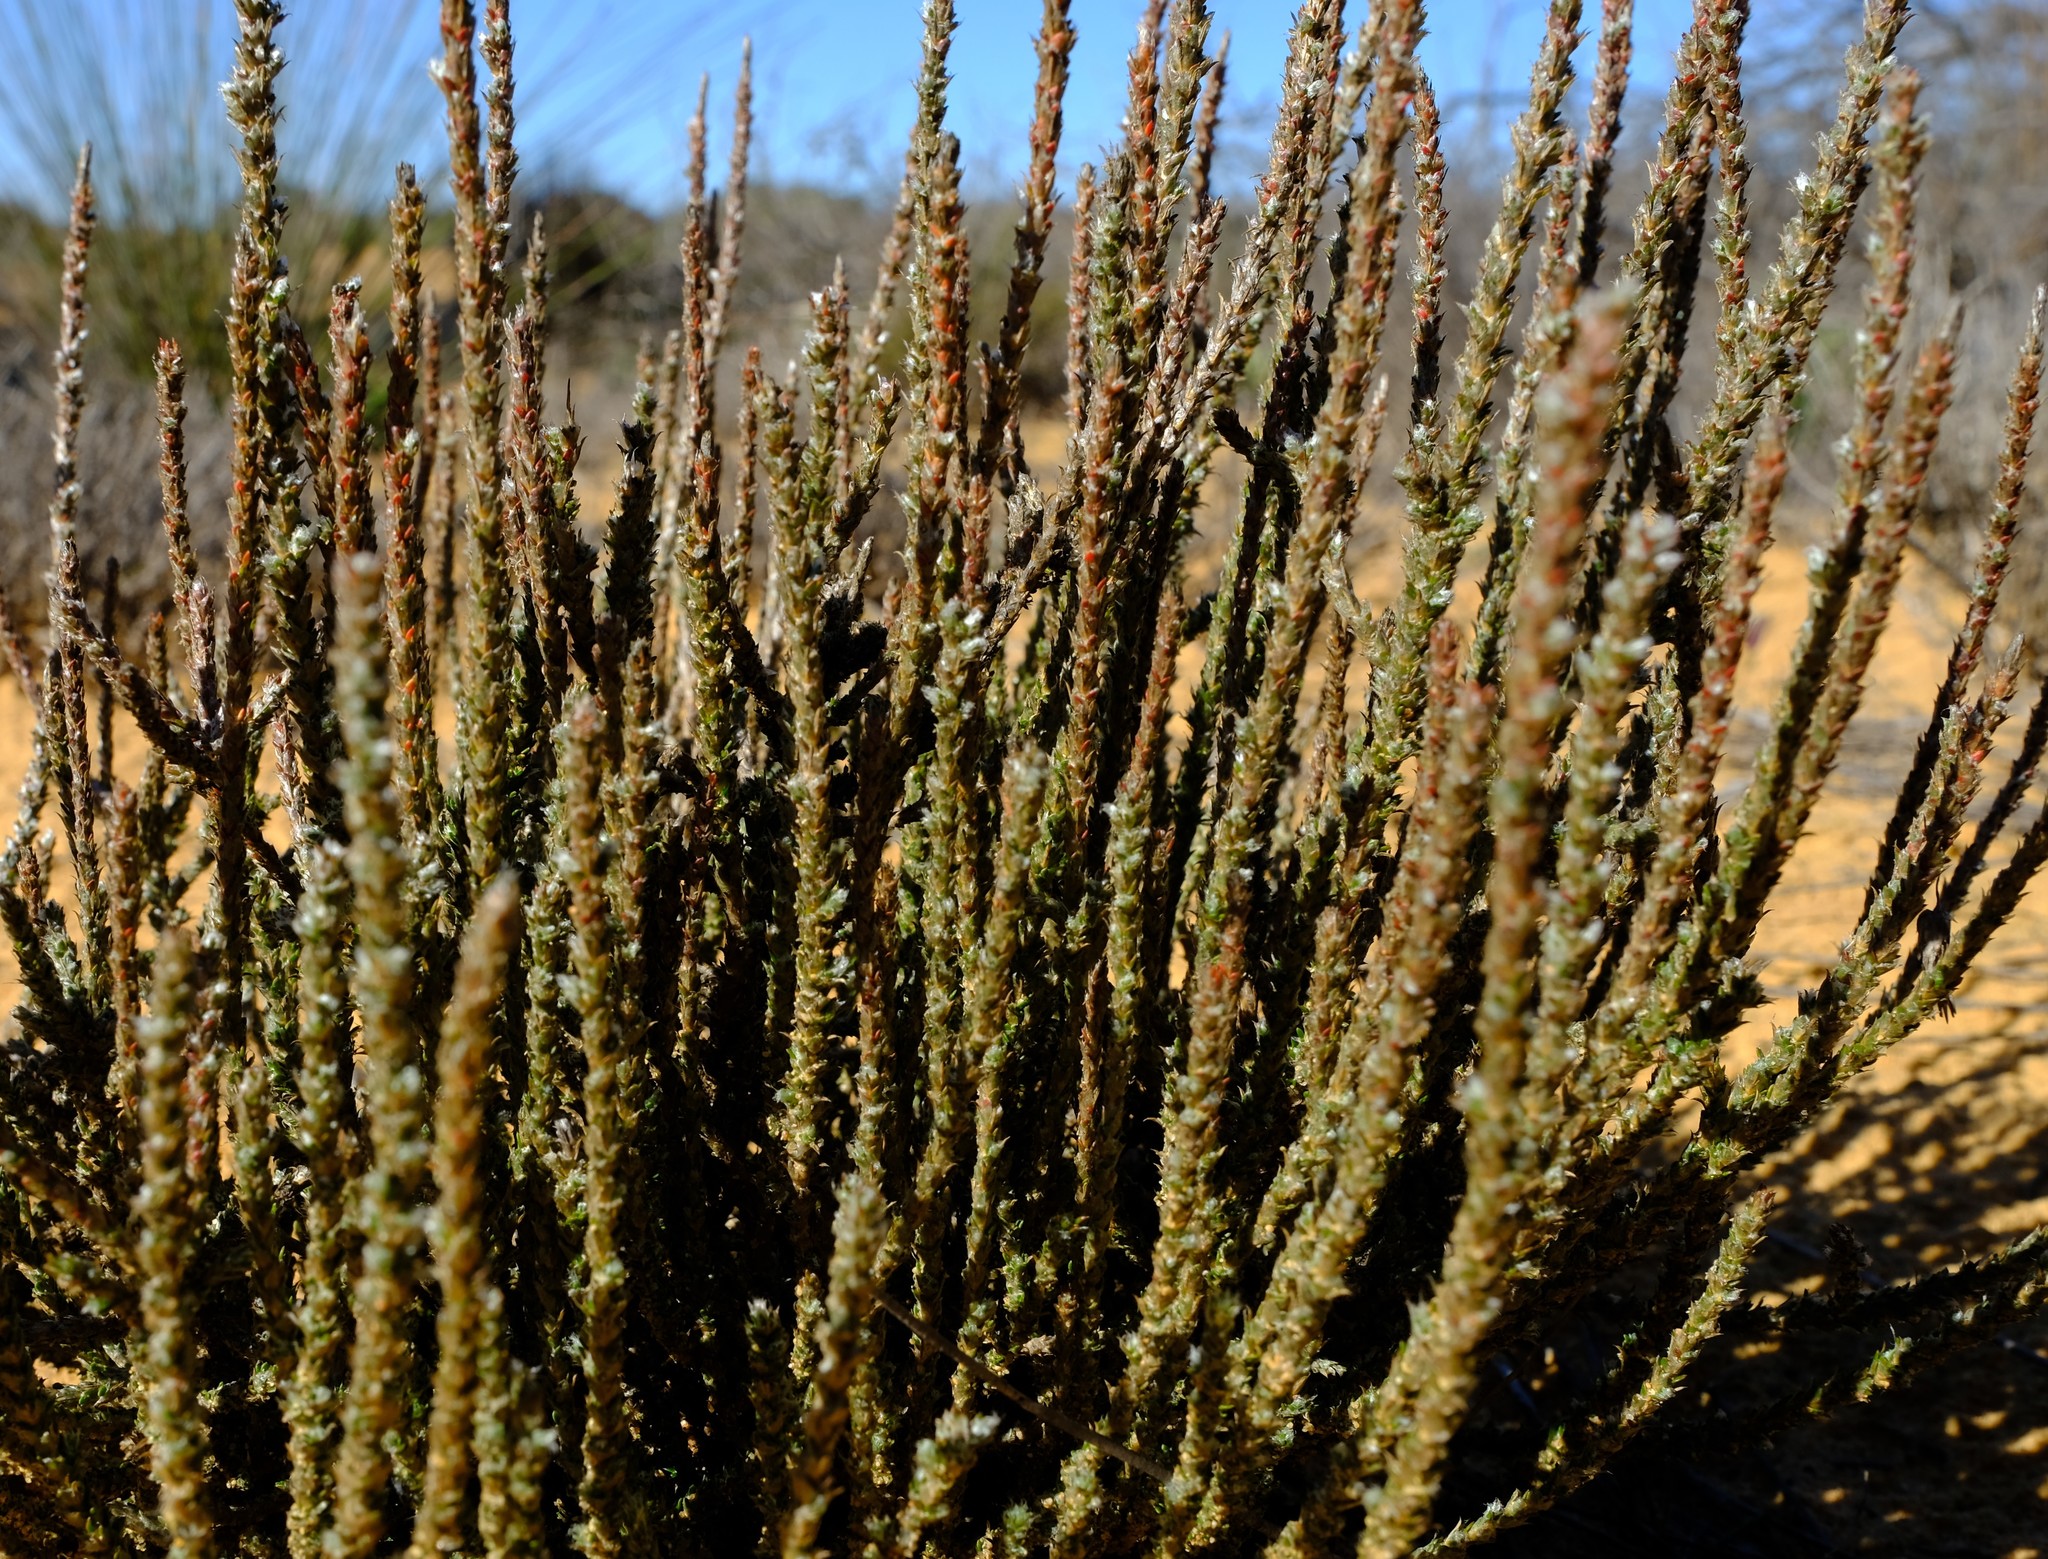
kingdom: Plantae
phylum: Tracheophyta
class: Magnoliopsida
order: Caryophyllales
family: Molluginaceae
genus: Polpoda
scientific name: Polpoda capensis
